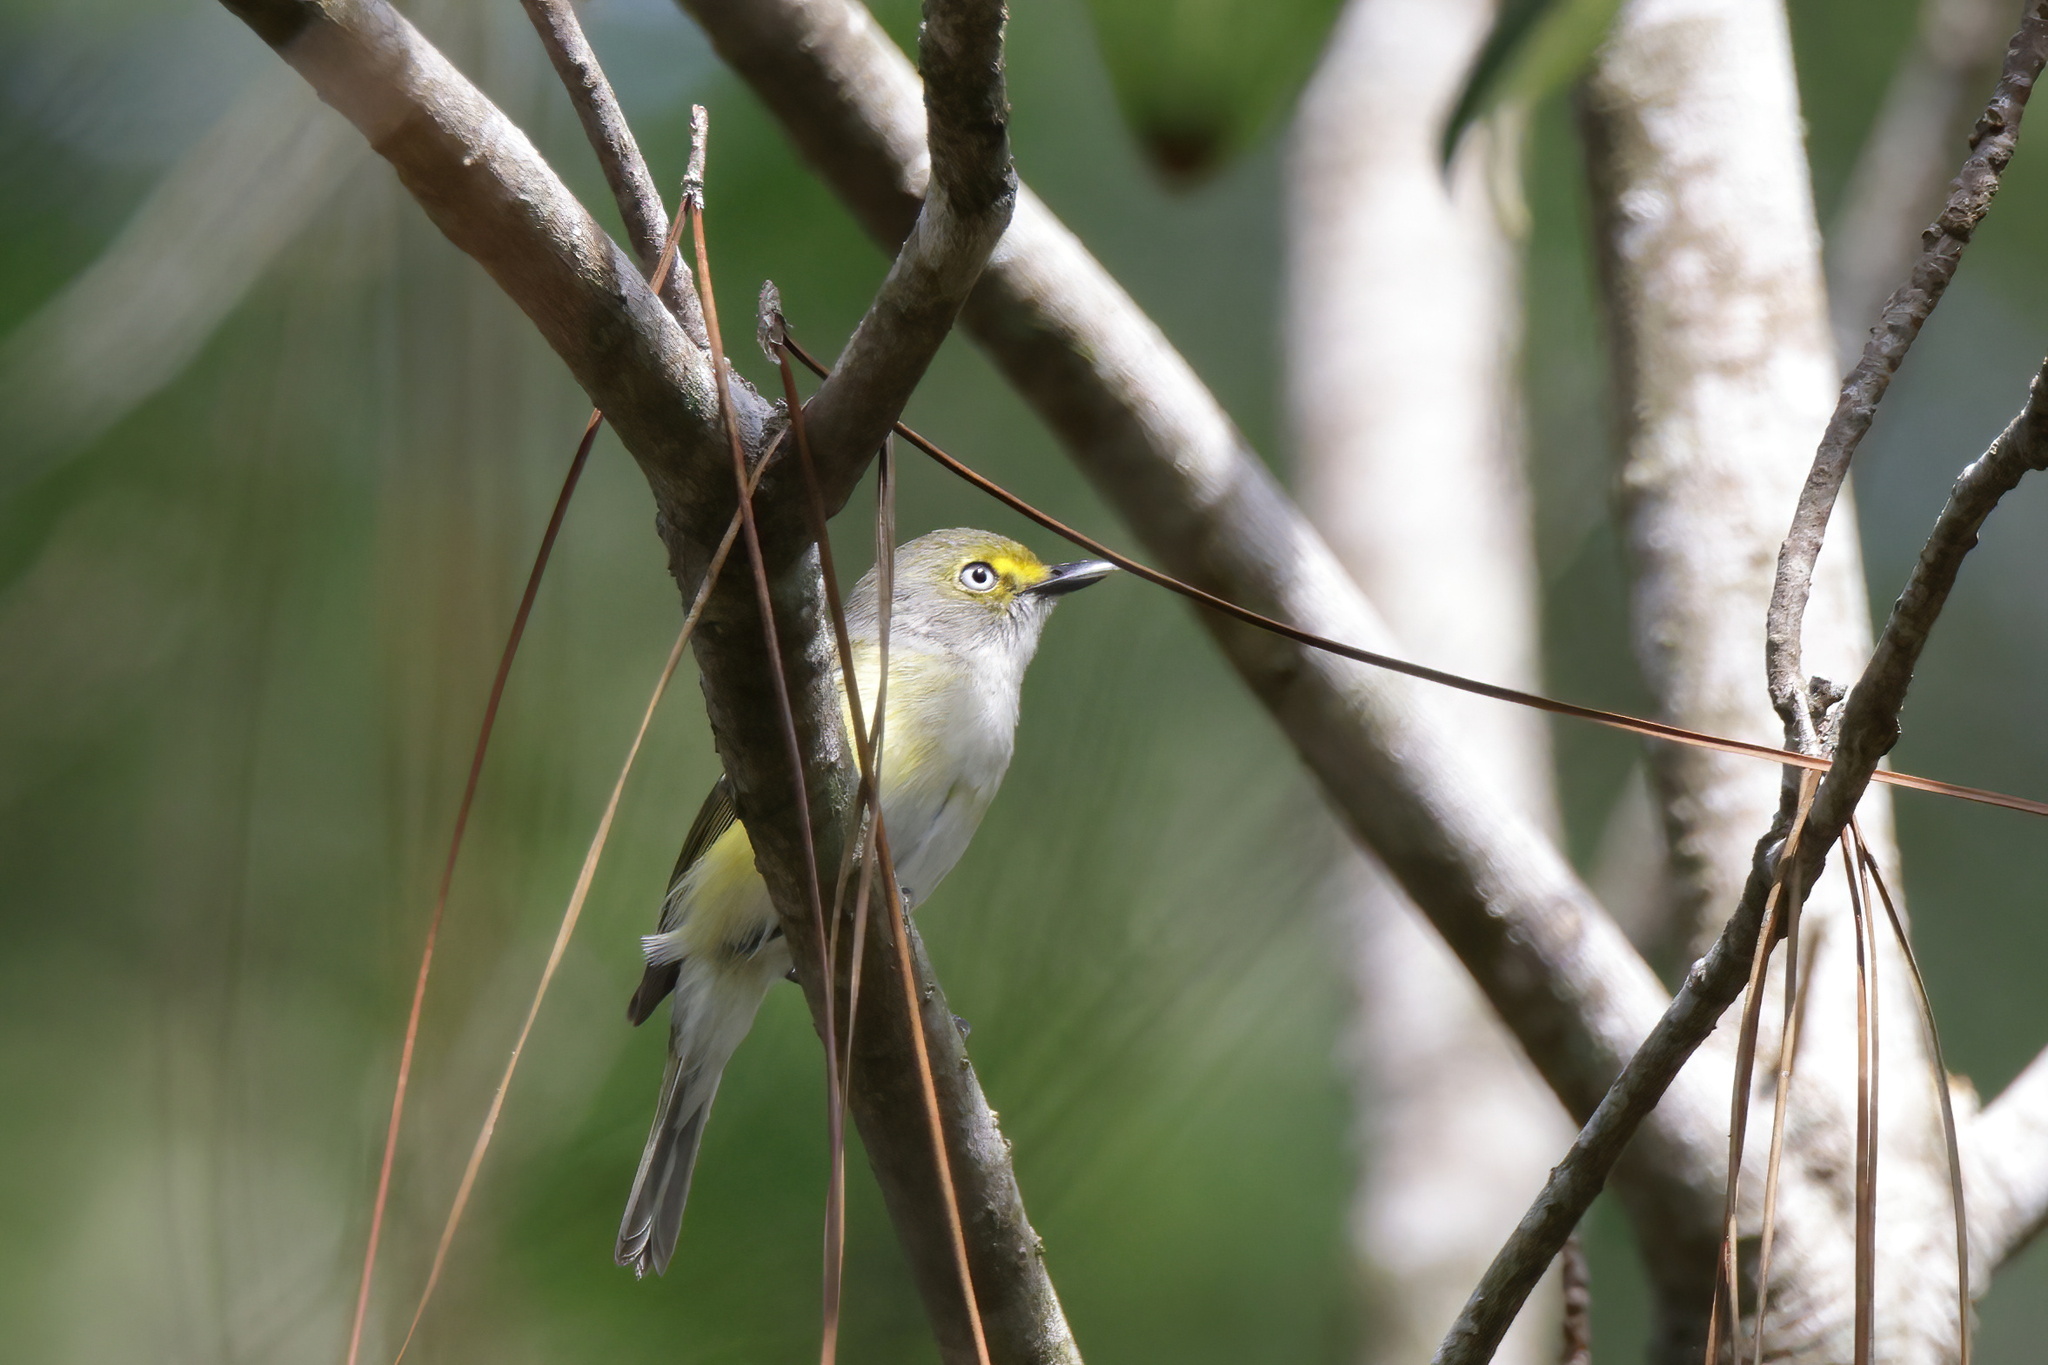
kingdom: Animalia
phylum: Chordata
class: Aves
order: Passeriformes
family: Vireonidae
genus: Vireo
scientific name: Vireo griseus
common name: White-eyed vireo
